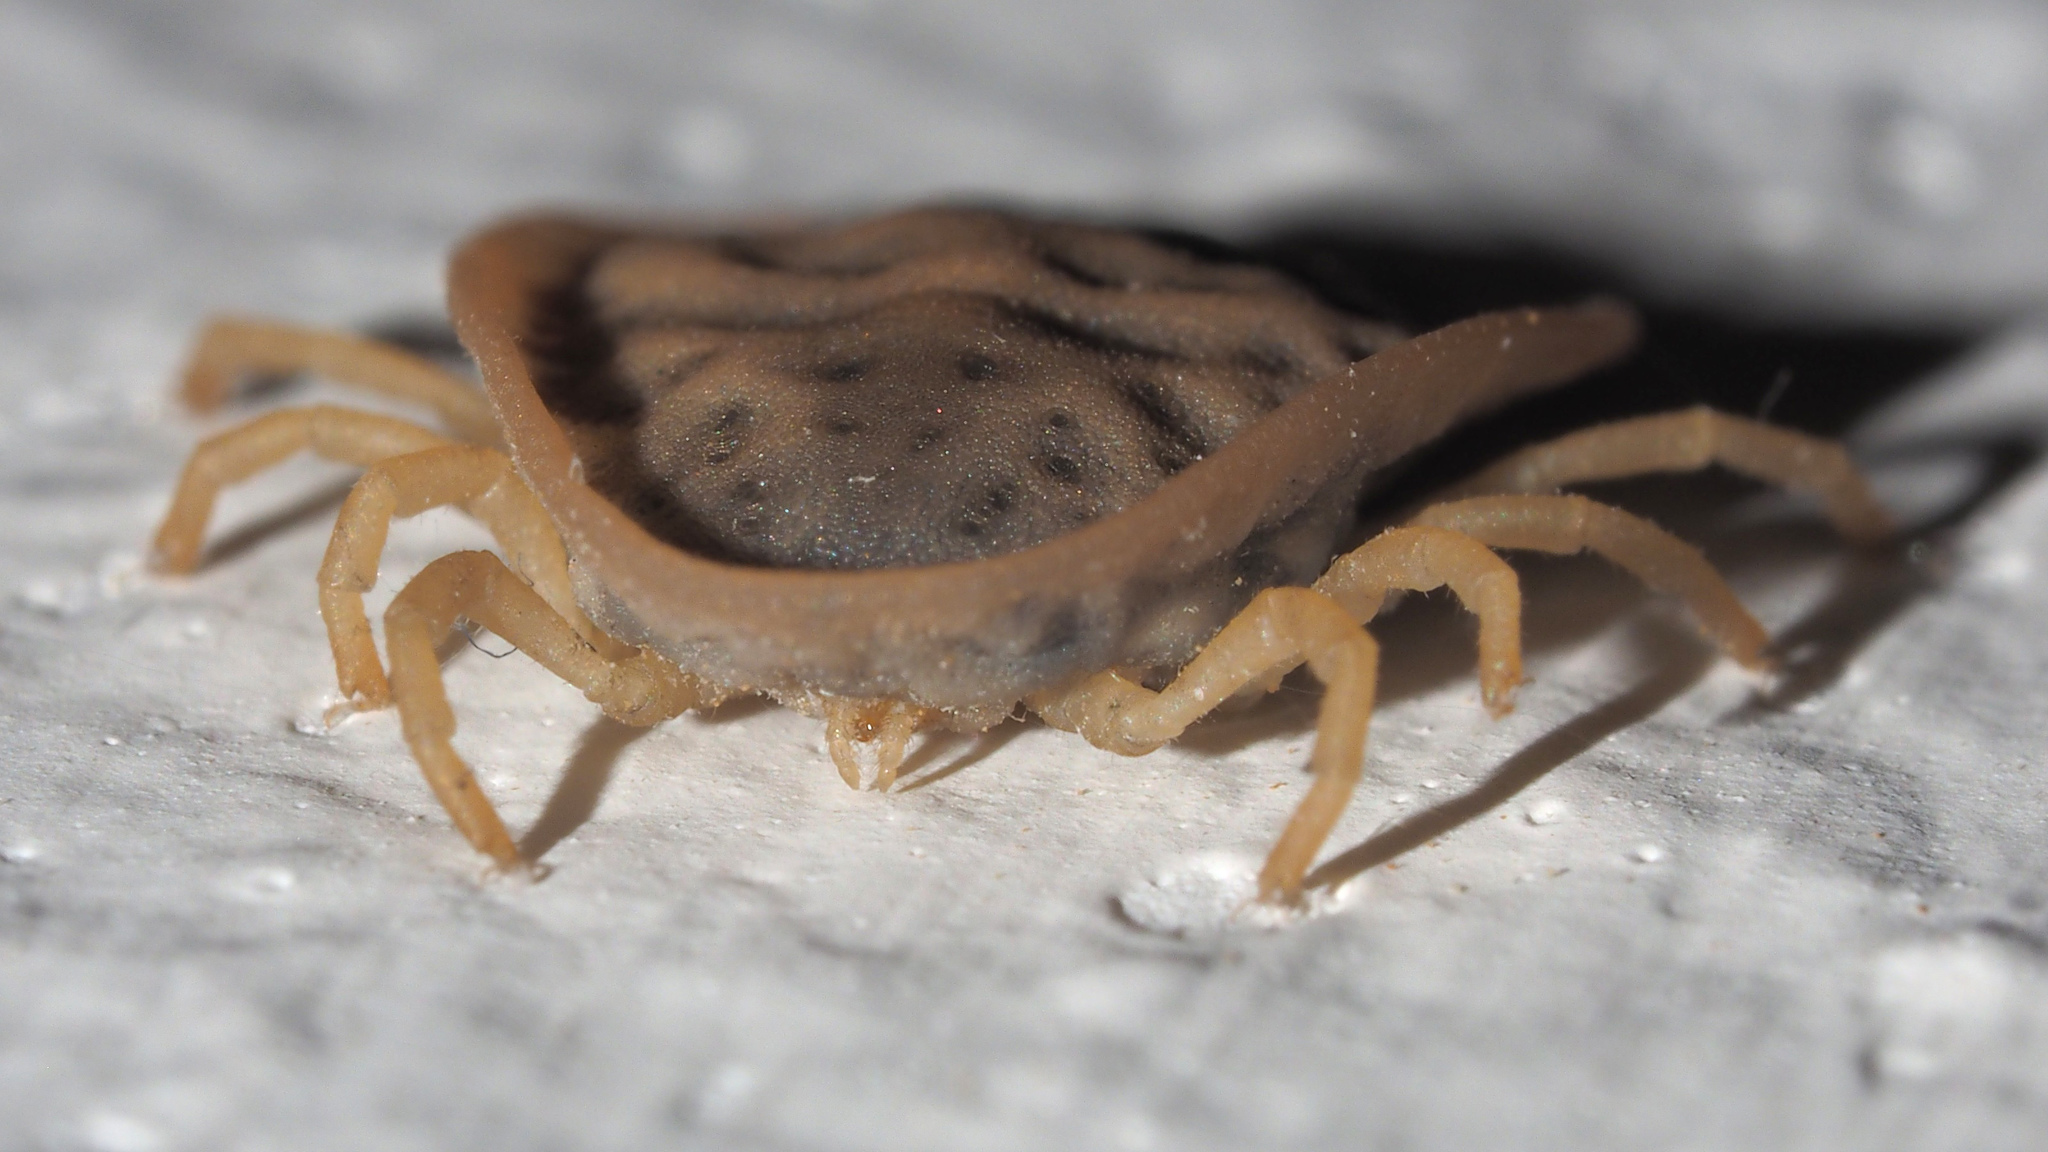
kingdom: Animalia
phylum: Arthropoda
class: Arachnida
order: Ixodida
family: Argasidae
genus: Argas
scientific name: Argas reflexus
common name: Pigeon tick
